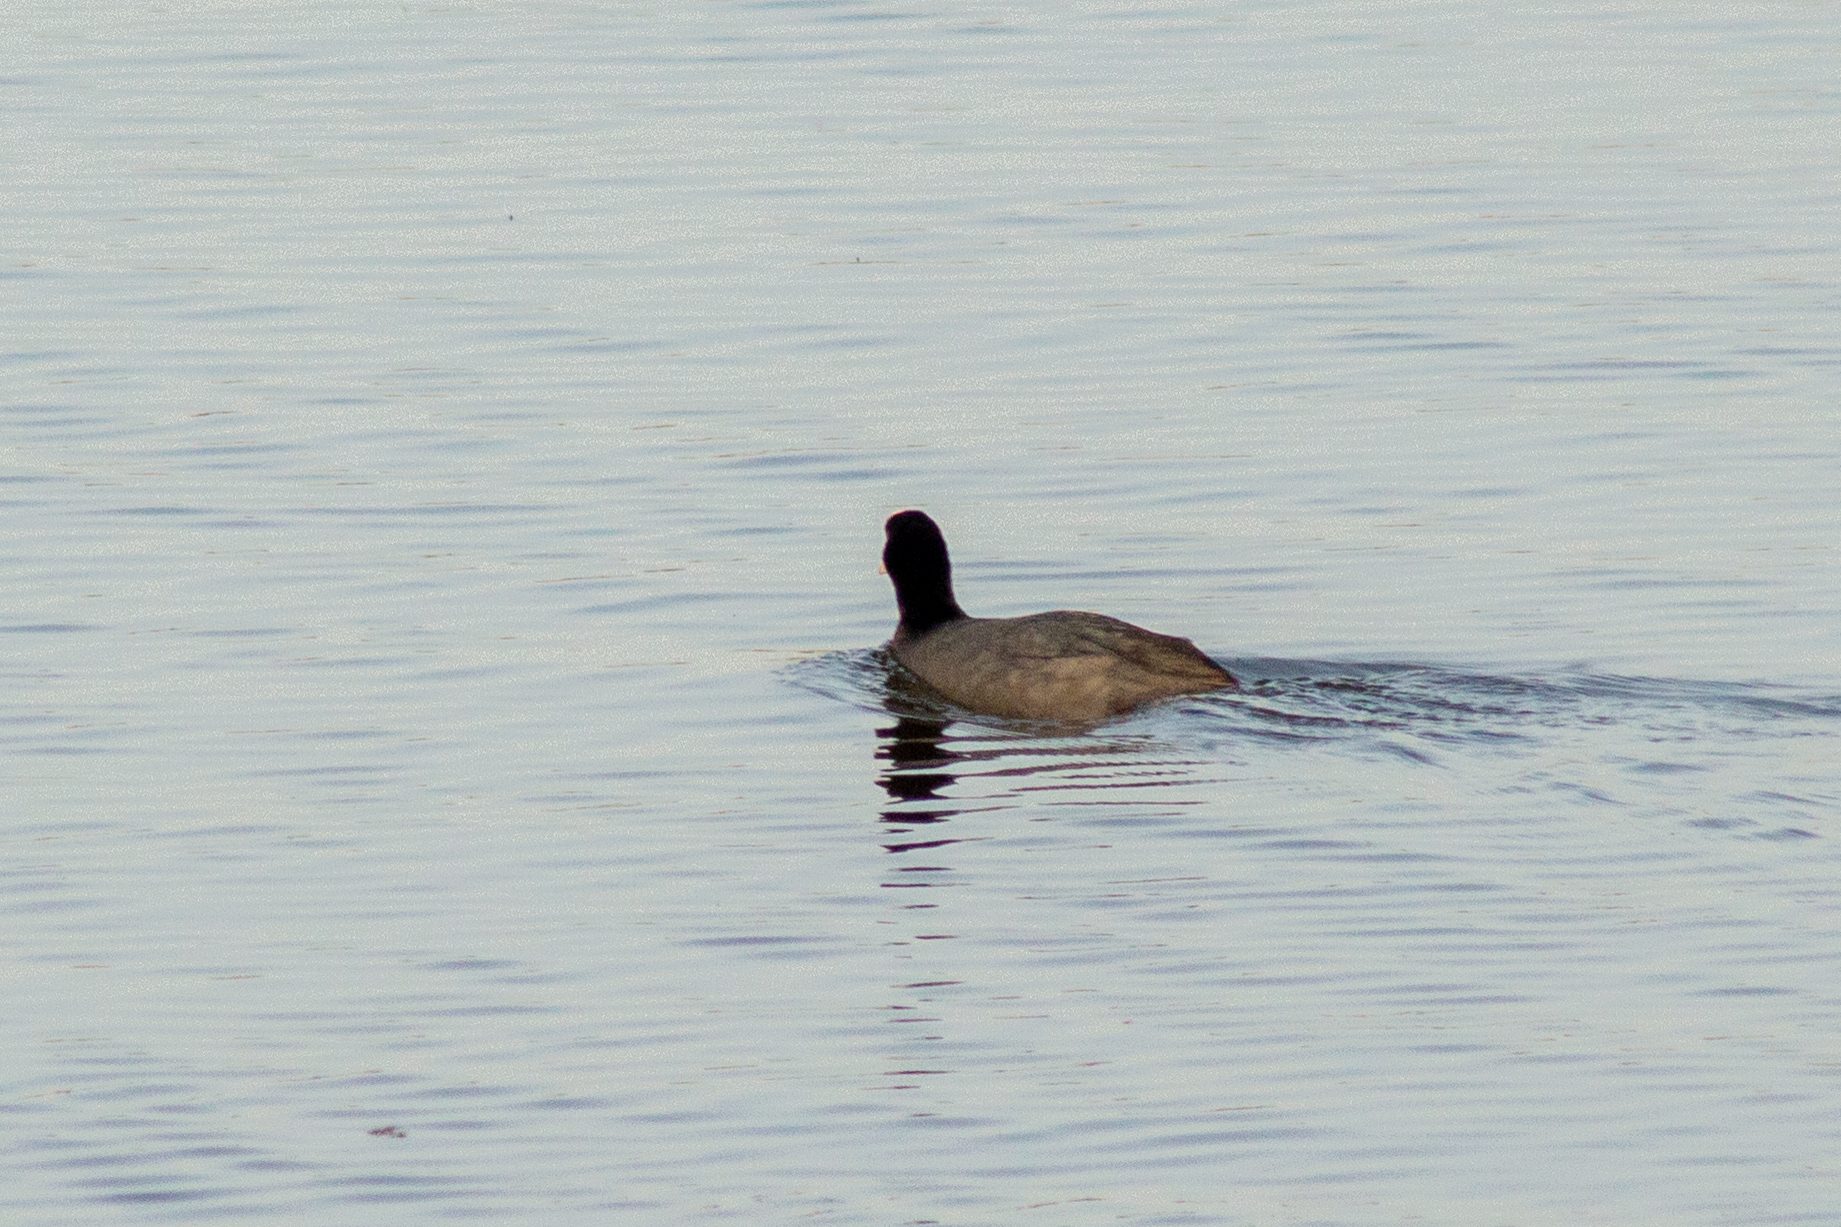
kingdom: Animalia
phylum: Chordata
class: Aves
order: Gruiformes
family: Rallidae
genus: Fulica
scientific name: Fulica atra
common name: Eurasian coot
